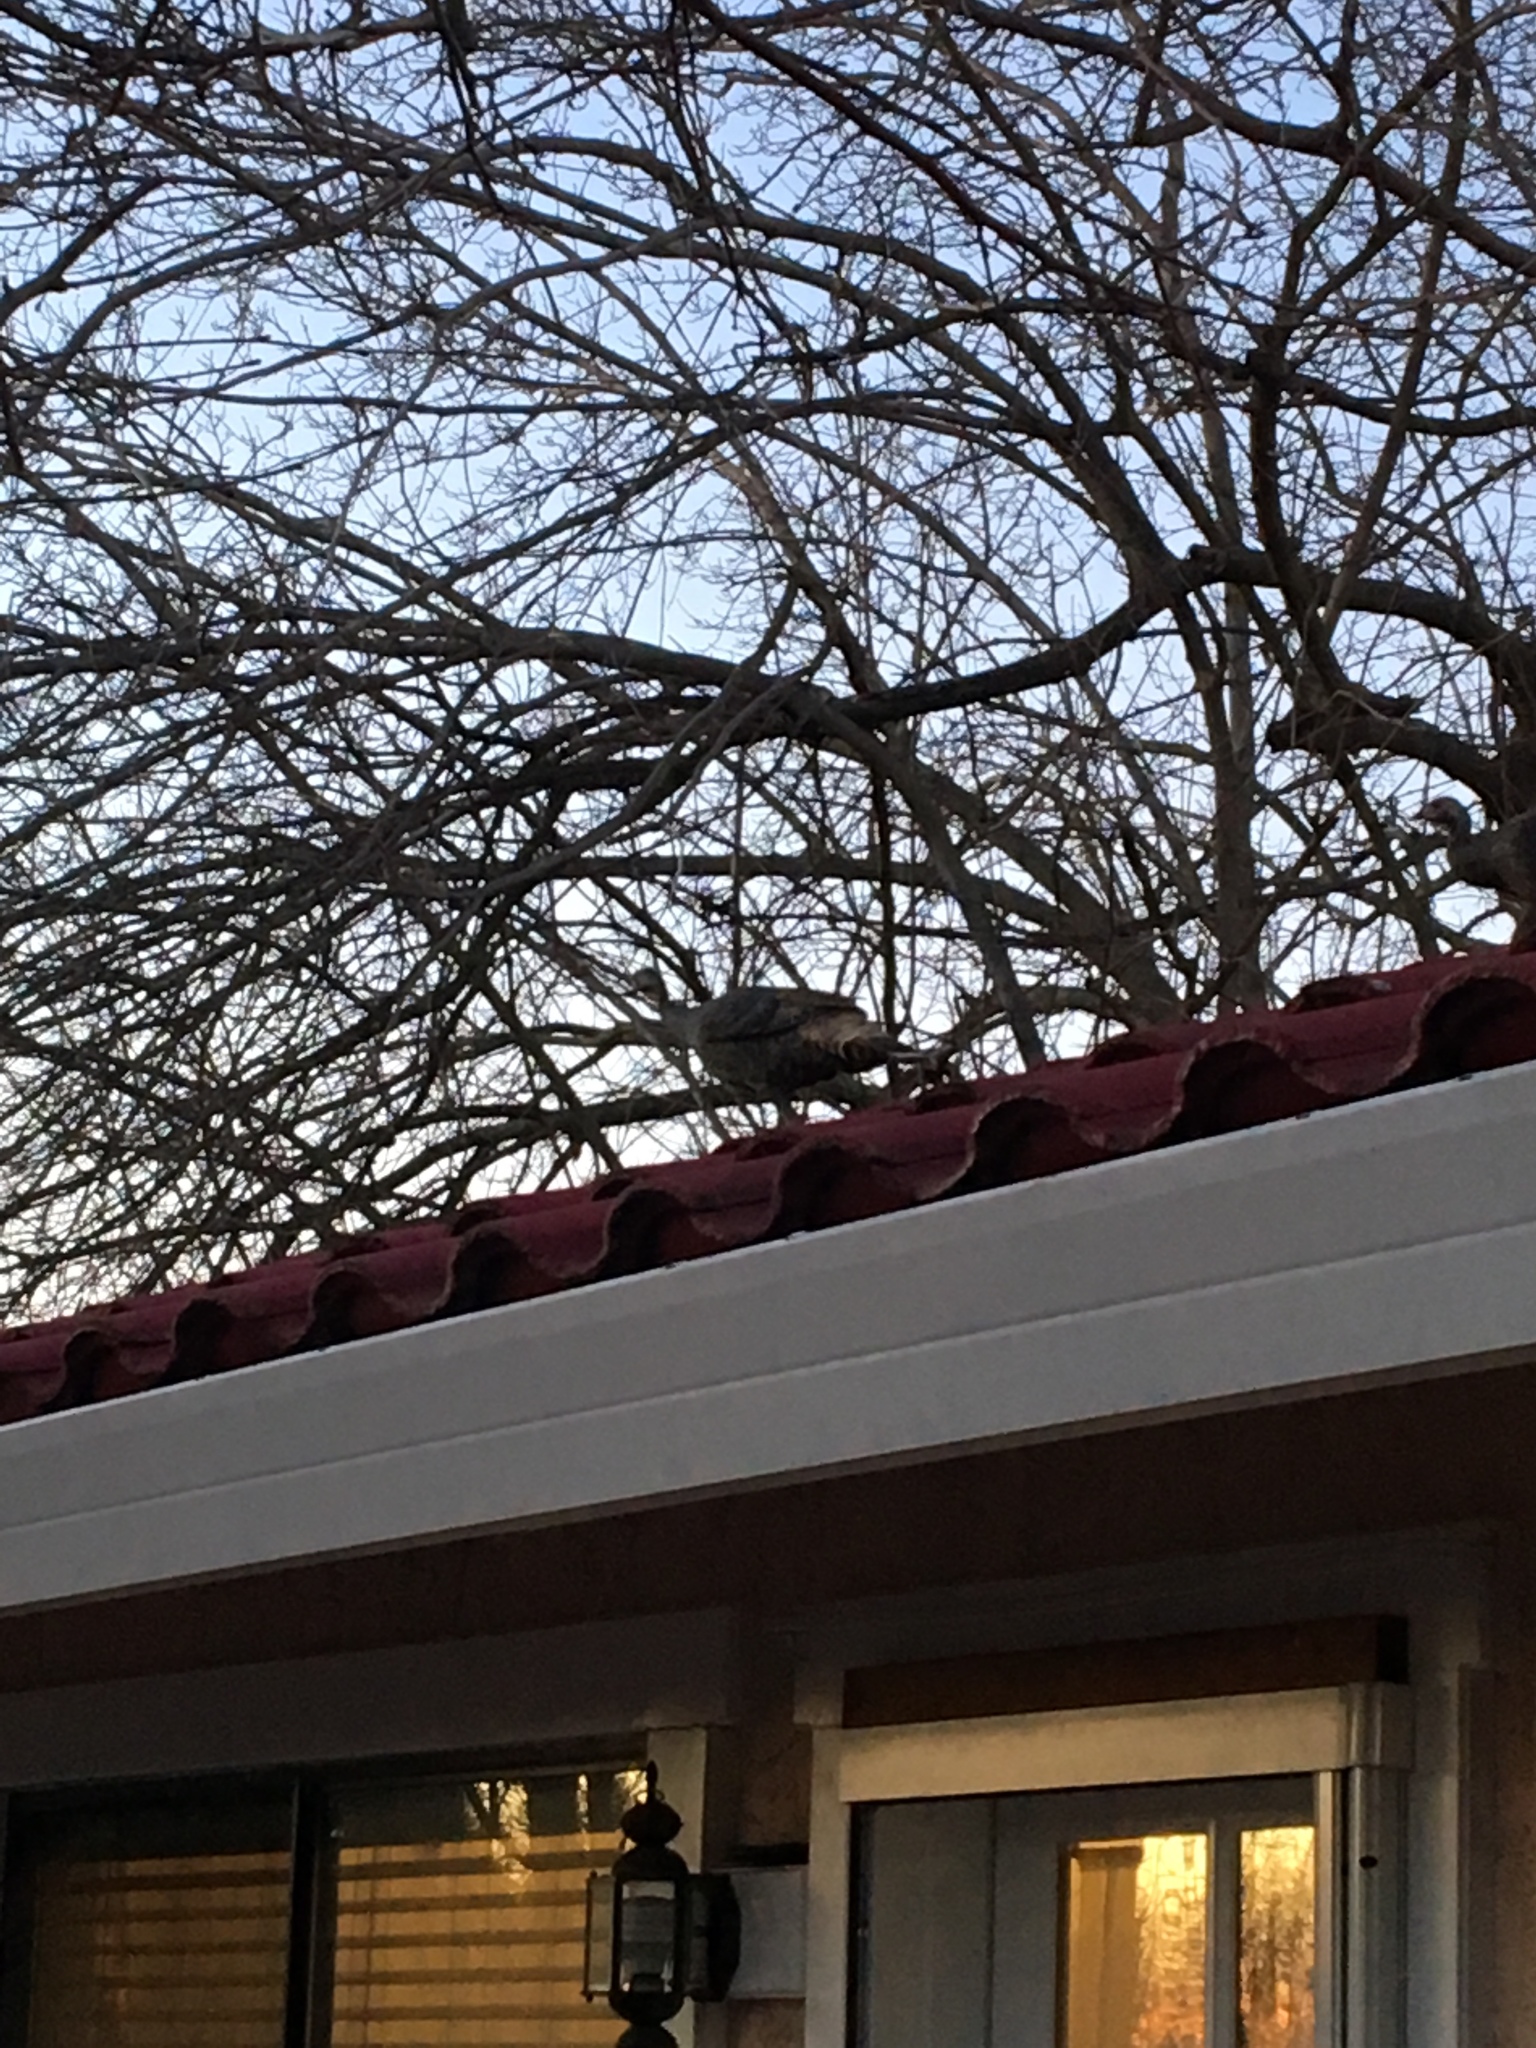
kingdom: Animalia
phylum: Chordata
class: Aves
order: Galliformes
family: Phasianidae
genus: Meleagris
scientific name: Meleagris gallopavo
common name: Wild turkey
